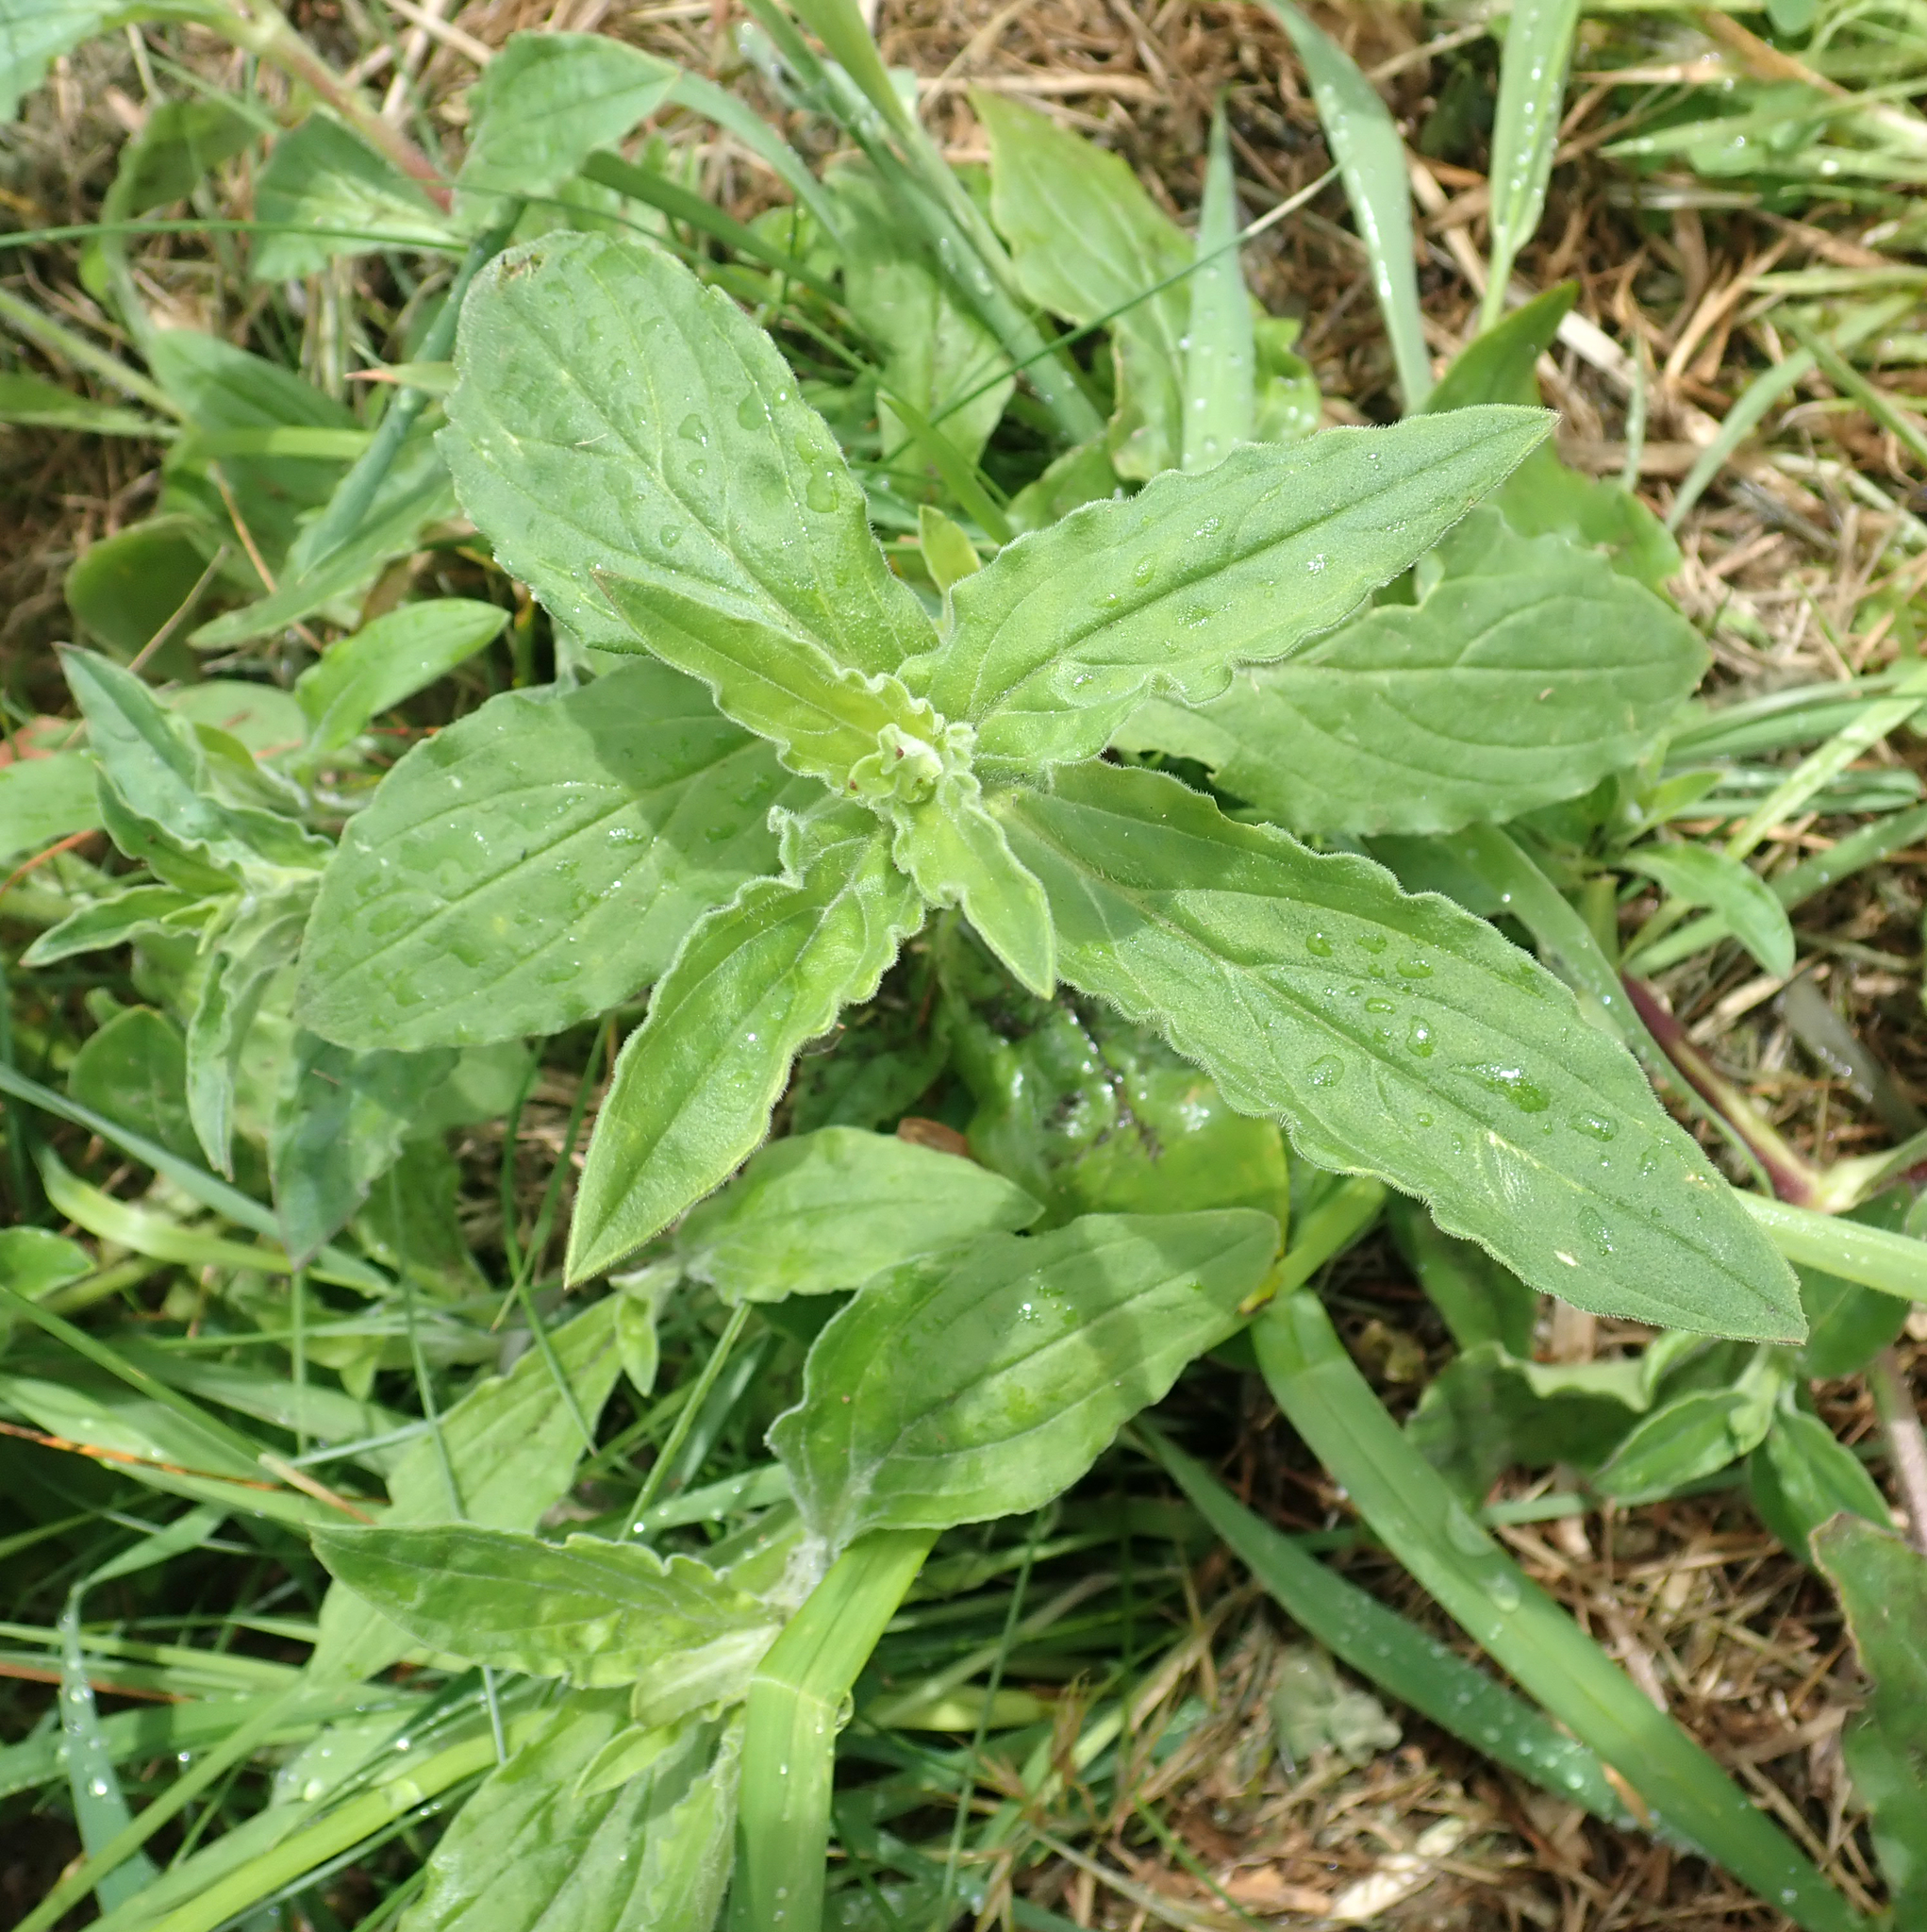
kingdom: Plantae
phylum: Tracheophyta
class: Magnoliopsida
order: Caryophyllales
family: Caryophyllaceae
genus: Silene
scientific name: Silene latifolia
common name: White campion
